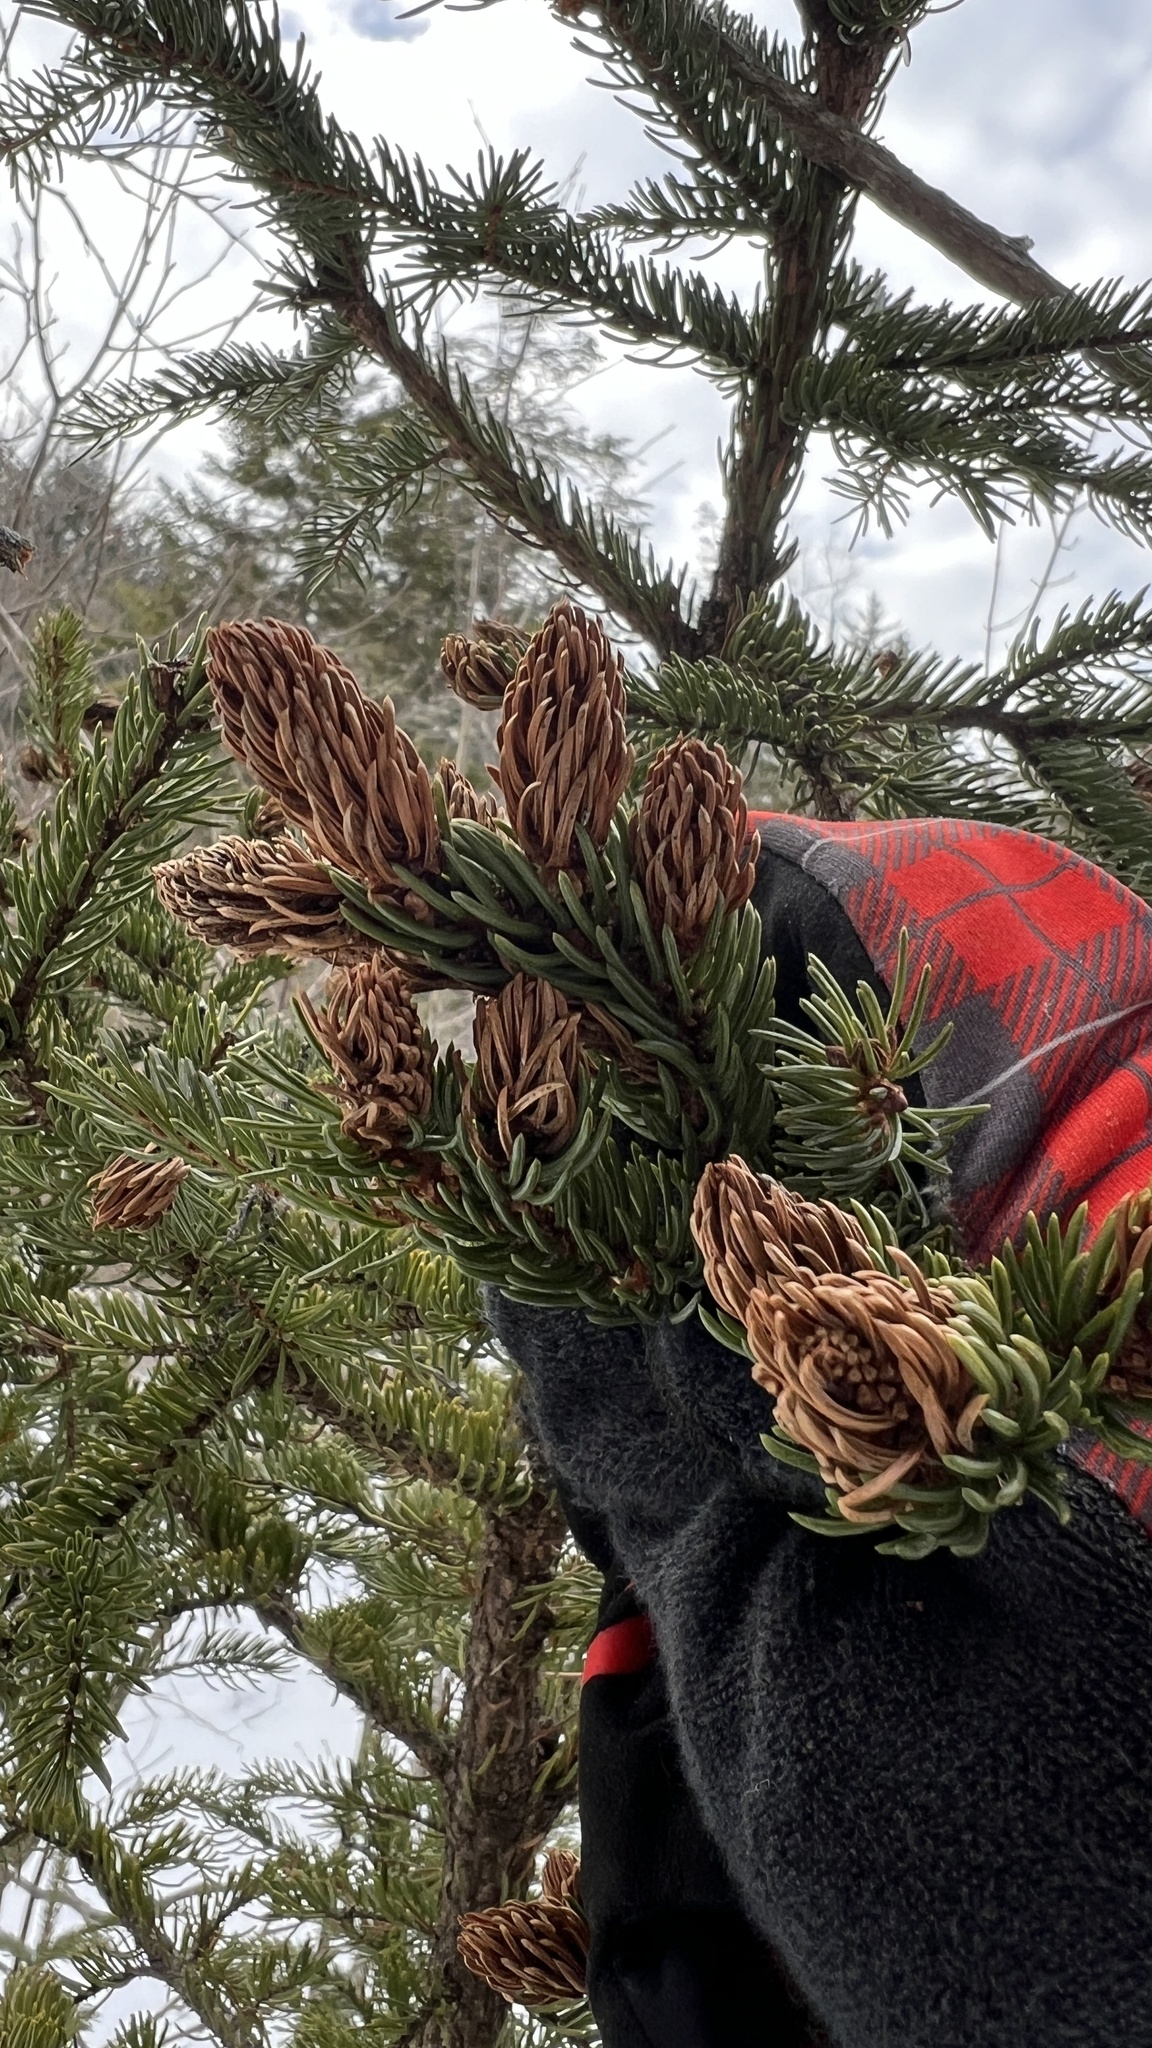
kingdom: Animalia
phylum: Arthropoda
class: Insecta
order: Hemiptera
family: Adelgidae
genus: Adelges
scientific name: Adelges abietis
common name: Eastern spruce gall adelgid
